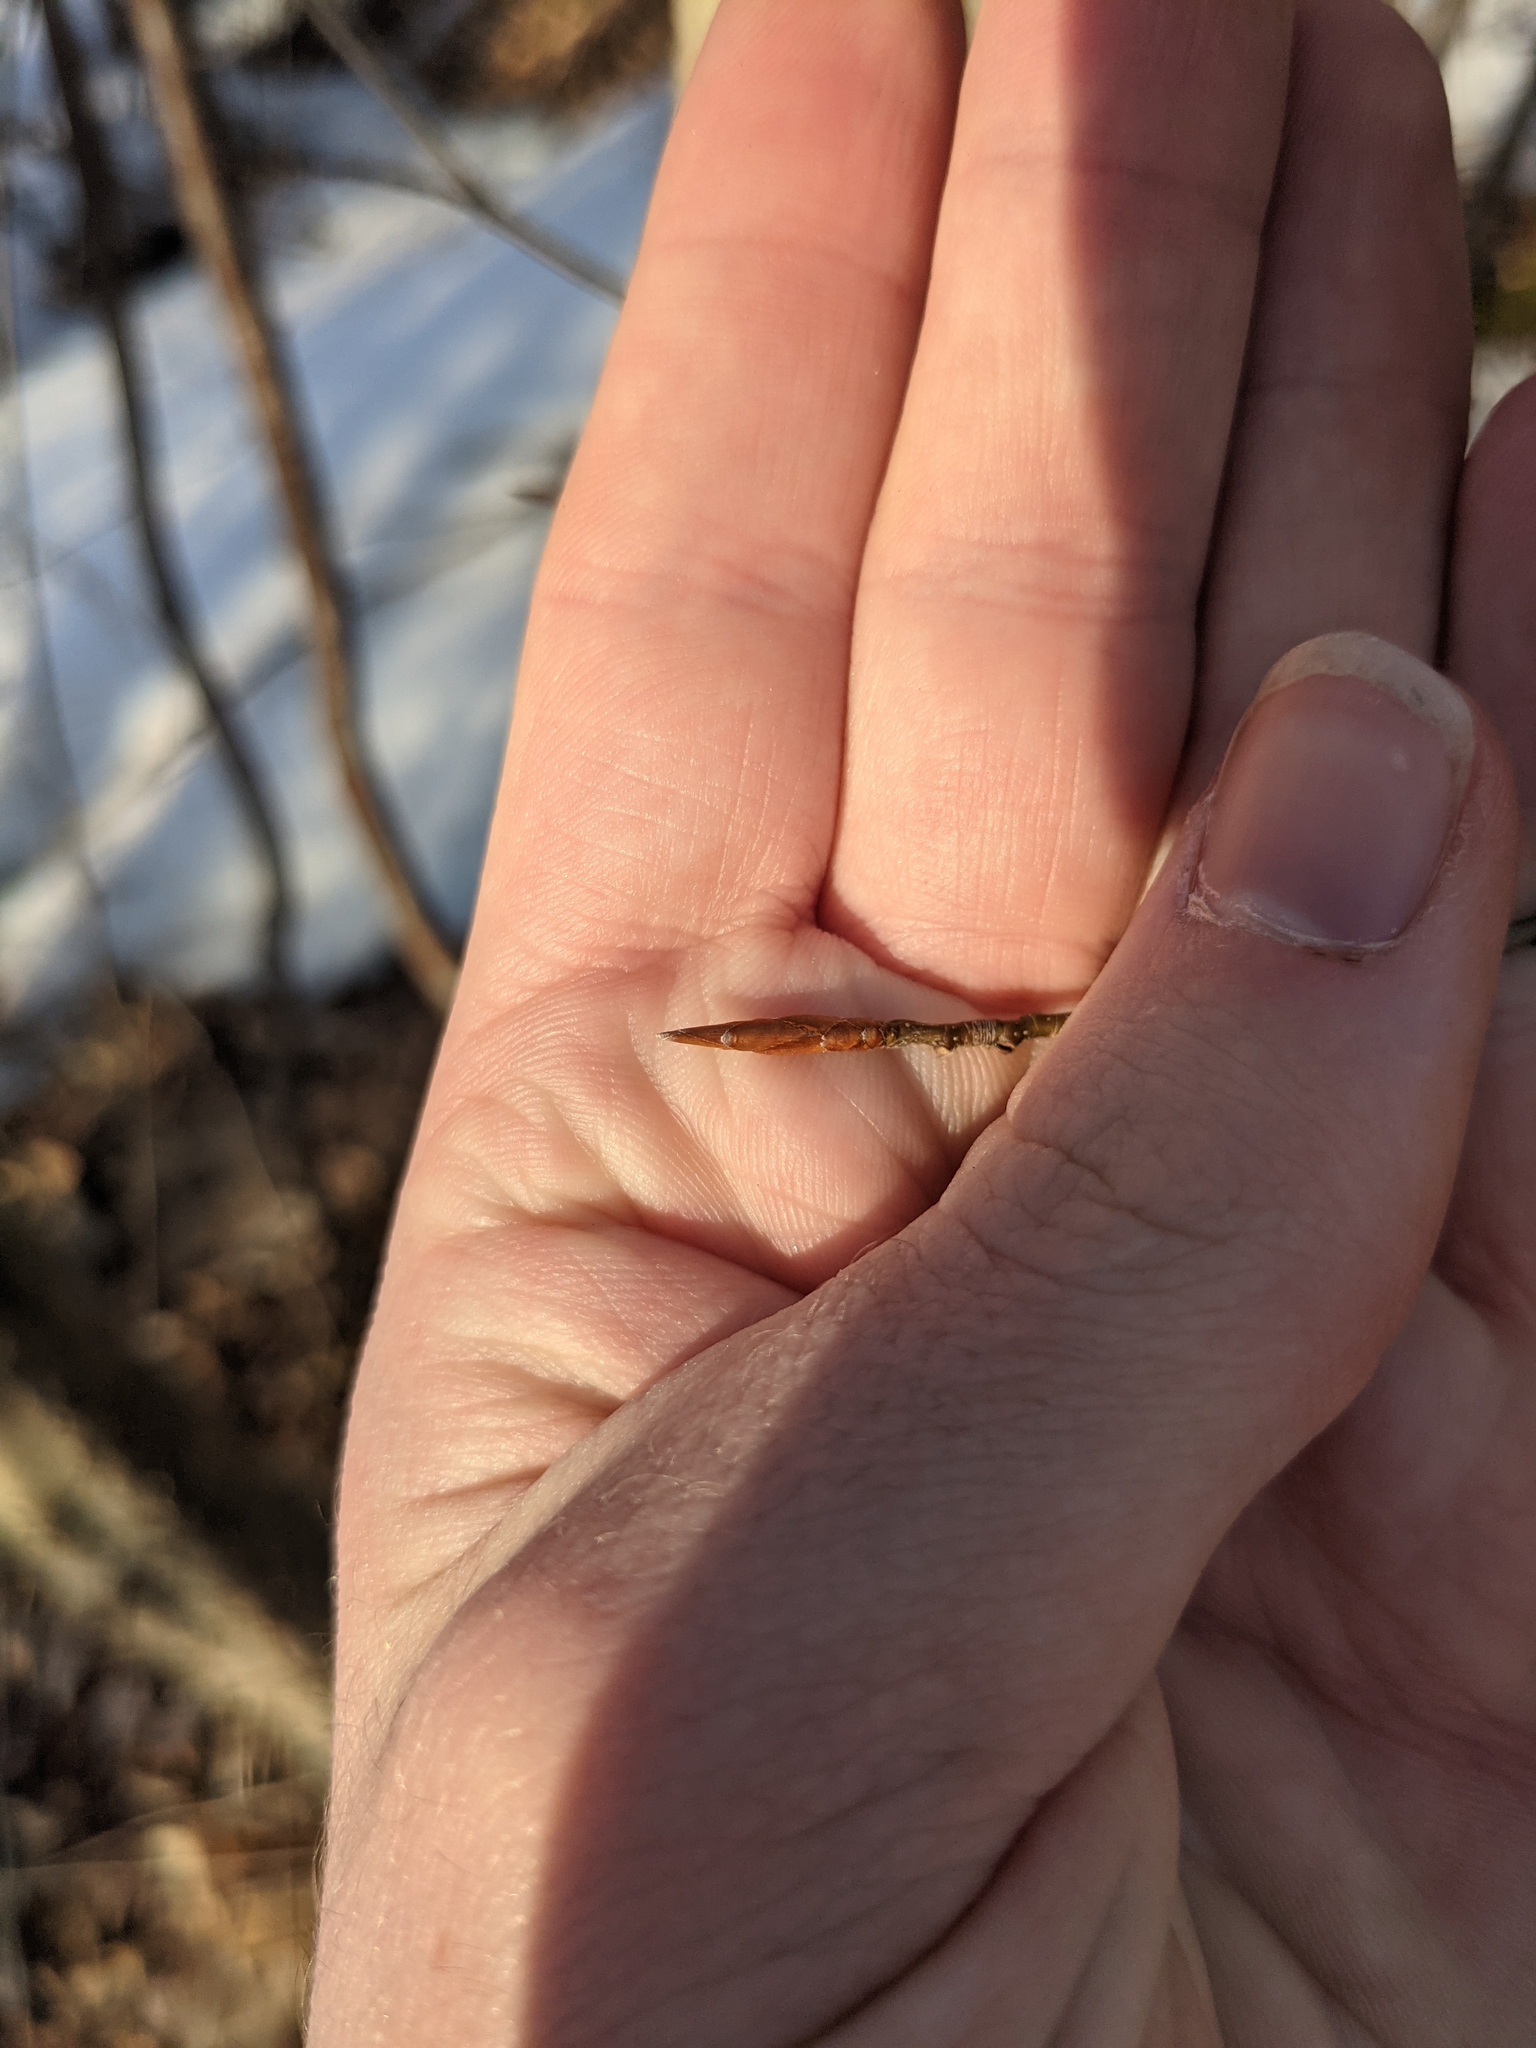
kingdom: Plantae
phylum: Tracheophyta
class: Magnoliopsida
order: Fagales
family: Fagaceae
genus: Fagus
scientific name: Fagus grandifolia
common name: American beech
